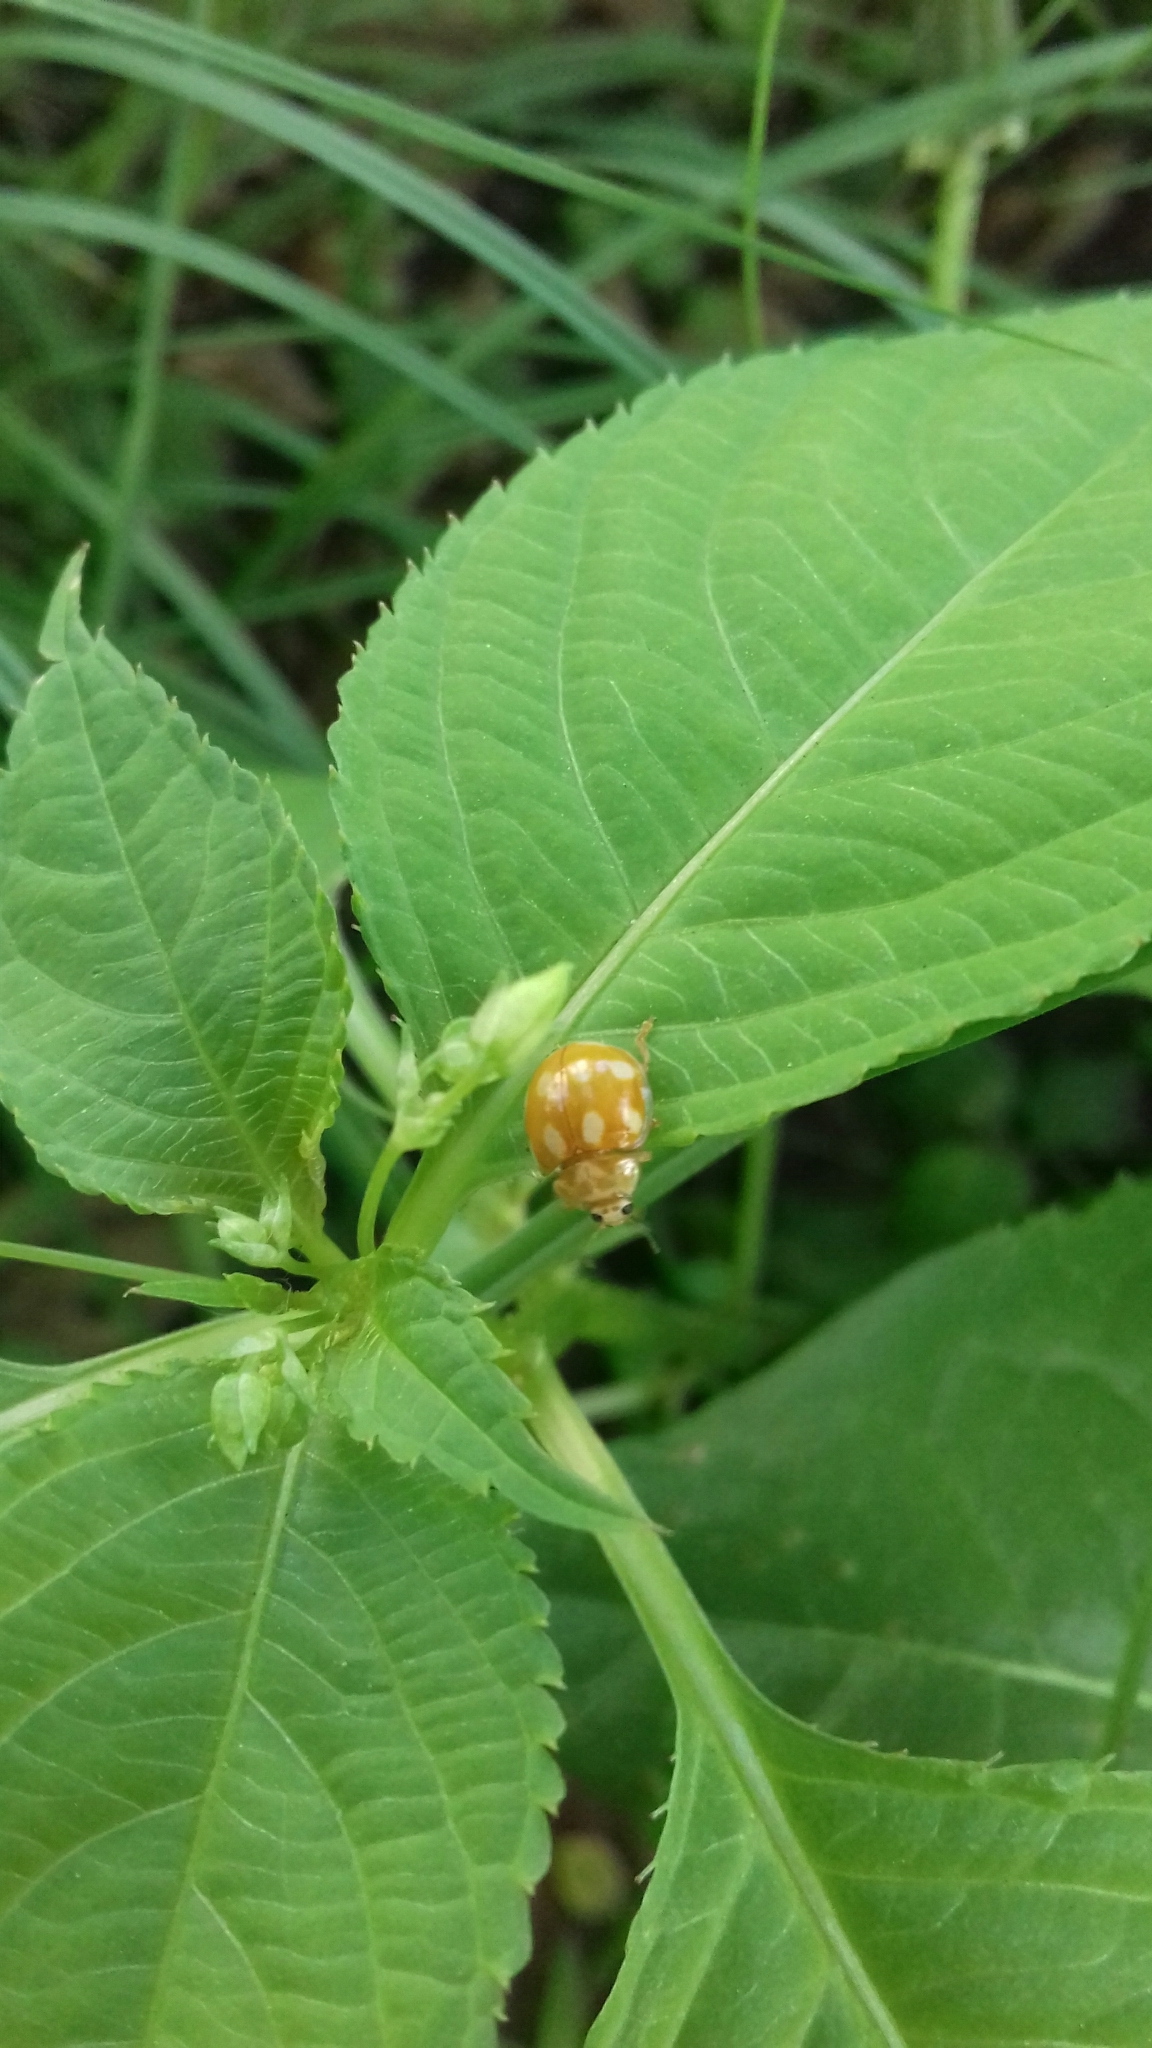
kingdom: Animalia
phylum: Arthropoda
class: Insecta
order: Coleoptera
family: Coccinellidae
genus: Calvia
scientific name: Calvia decemguttata
